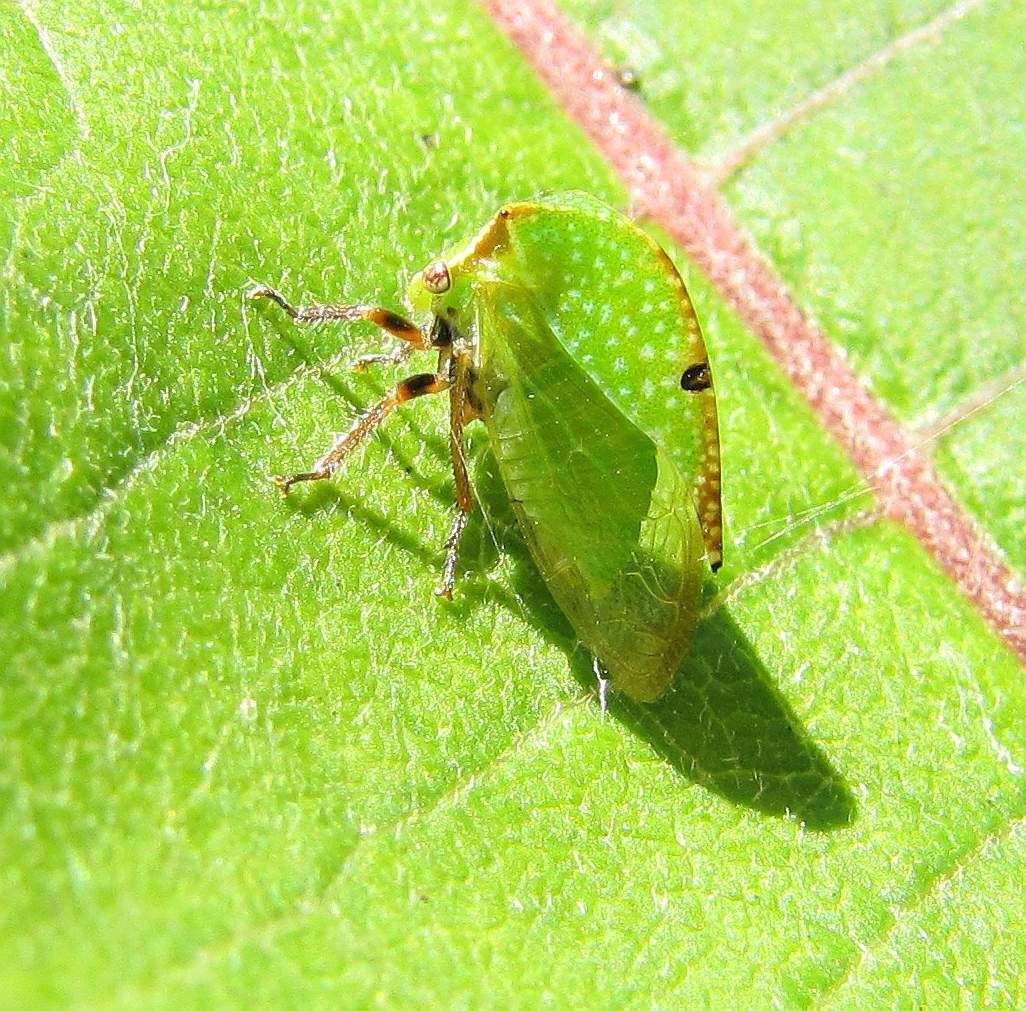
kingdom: Animalia
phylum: Arthropoda
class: Insecta
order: Hemiptera
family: Membracidae
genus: Stictocephala
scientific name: Stictocephala bisonia
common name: American buffalo treehopper
